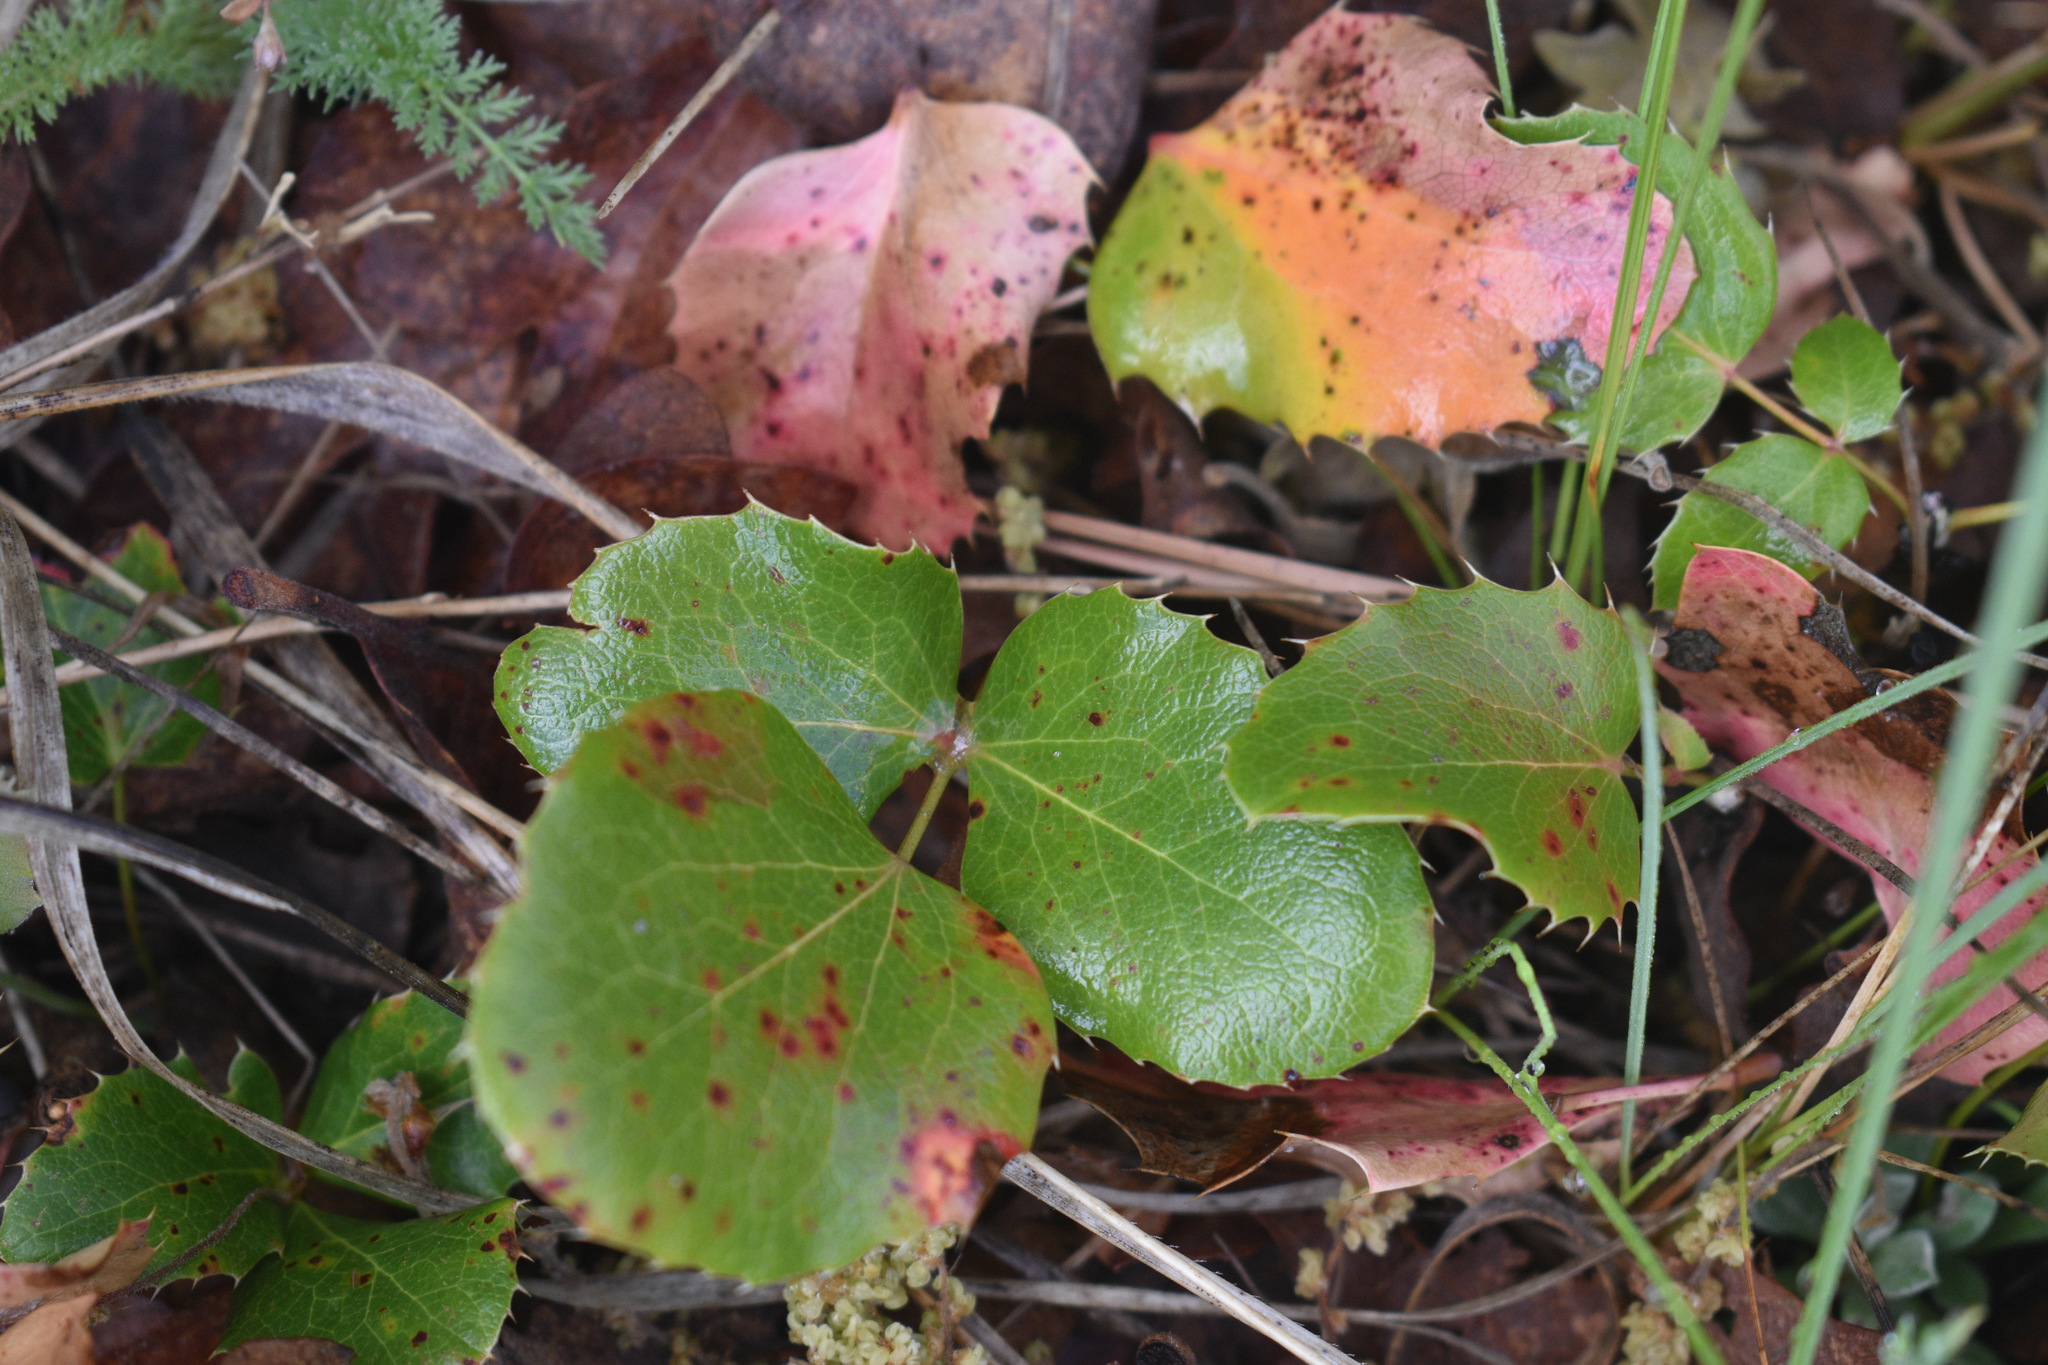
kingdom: Plantae
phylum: Tracheophyta
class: Magnoliopsida
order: Ranunculales
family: Berberidaceae
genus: Mahonia
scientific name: Mahonia repens
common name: Creeping oregon-grape
